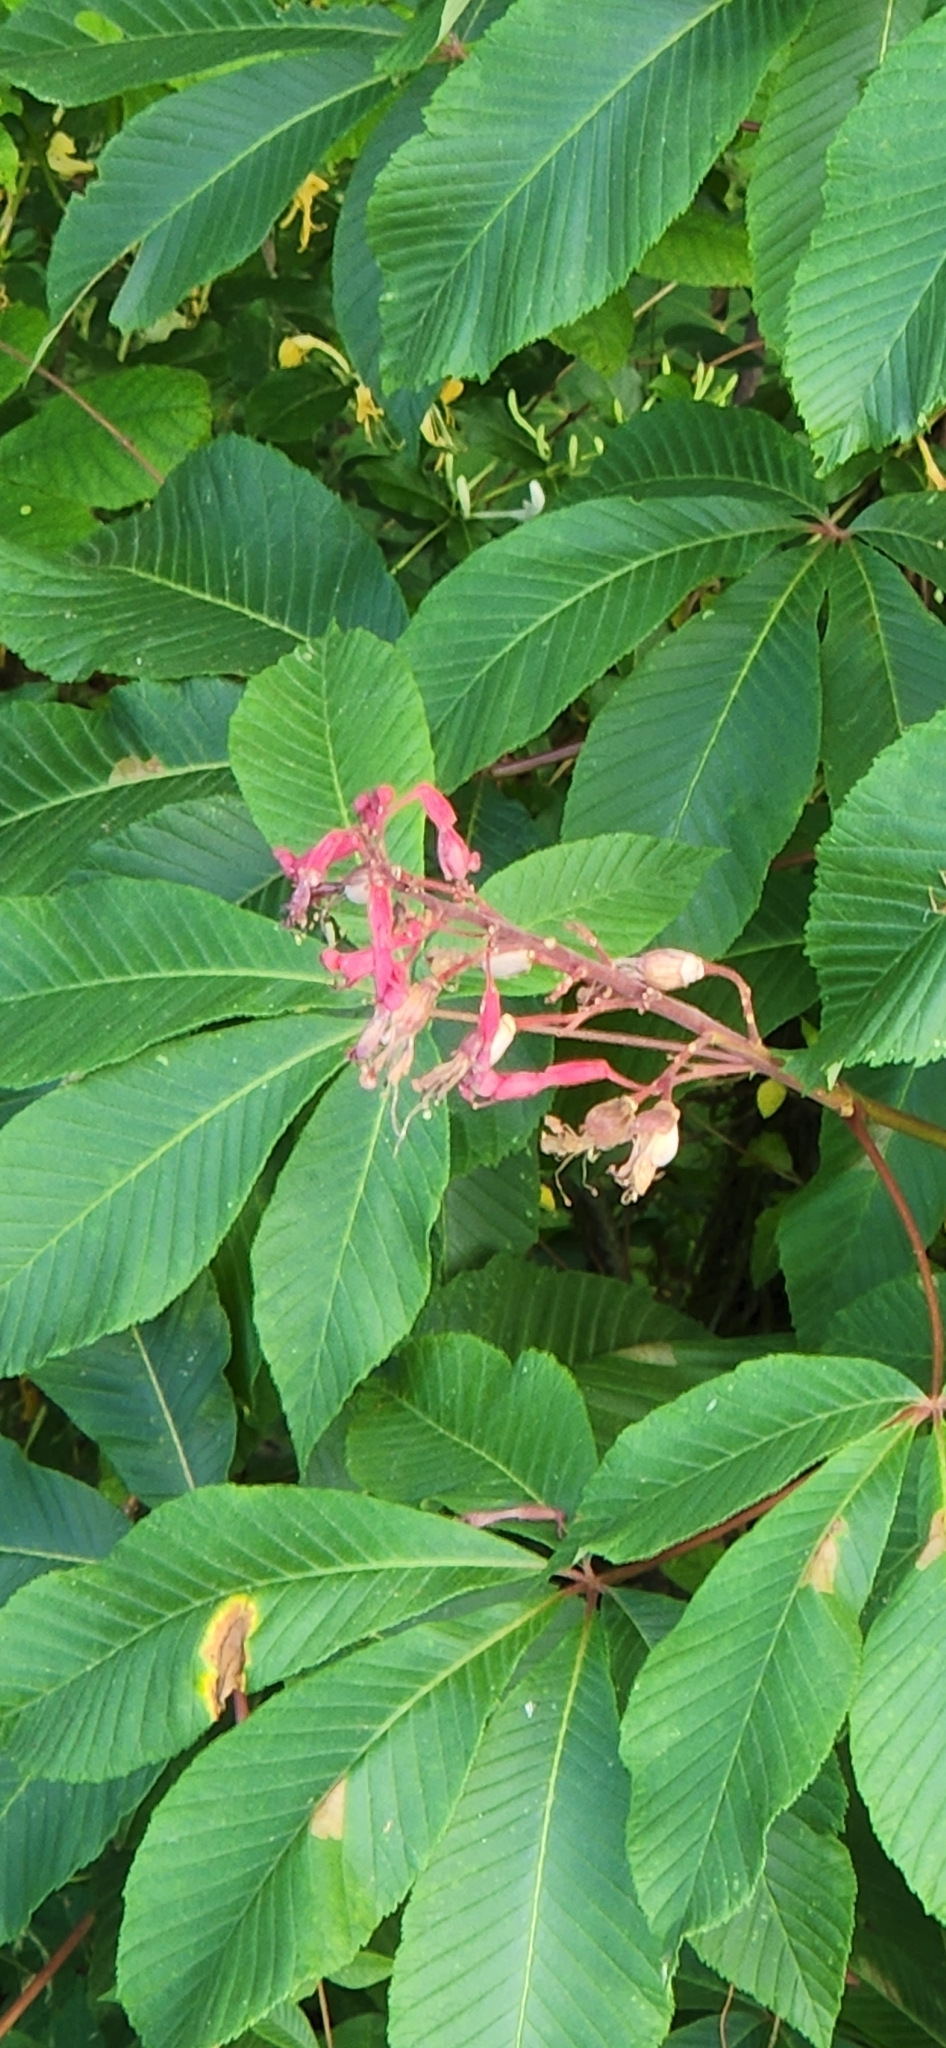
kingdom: Plantae
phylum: Tracheophyta
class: Magnoliopsida
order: Sapindales
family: Sapindaceae
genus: Aesculus
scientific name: Aesculus pavia
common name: Red buckeye
